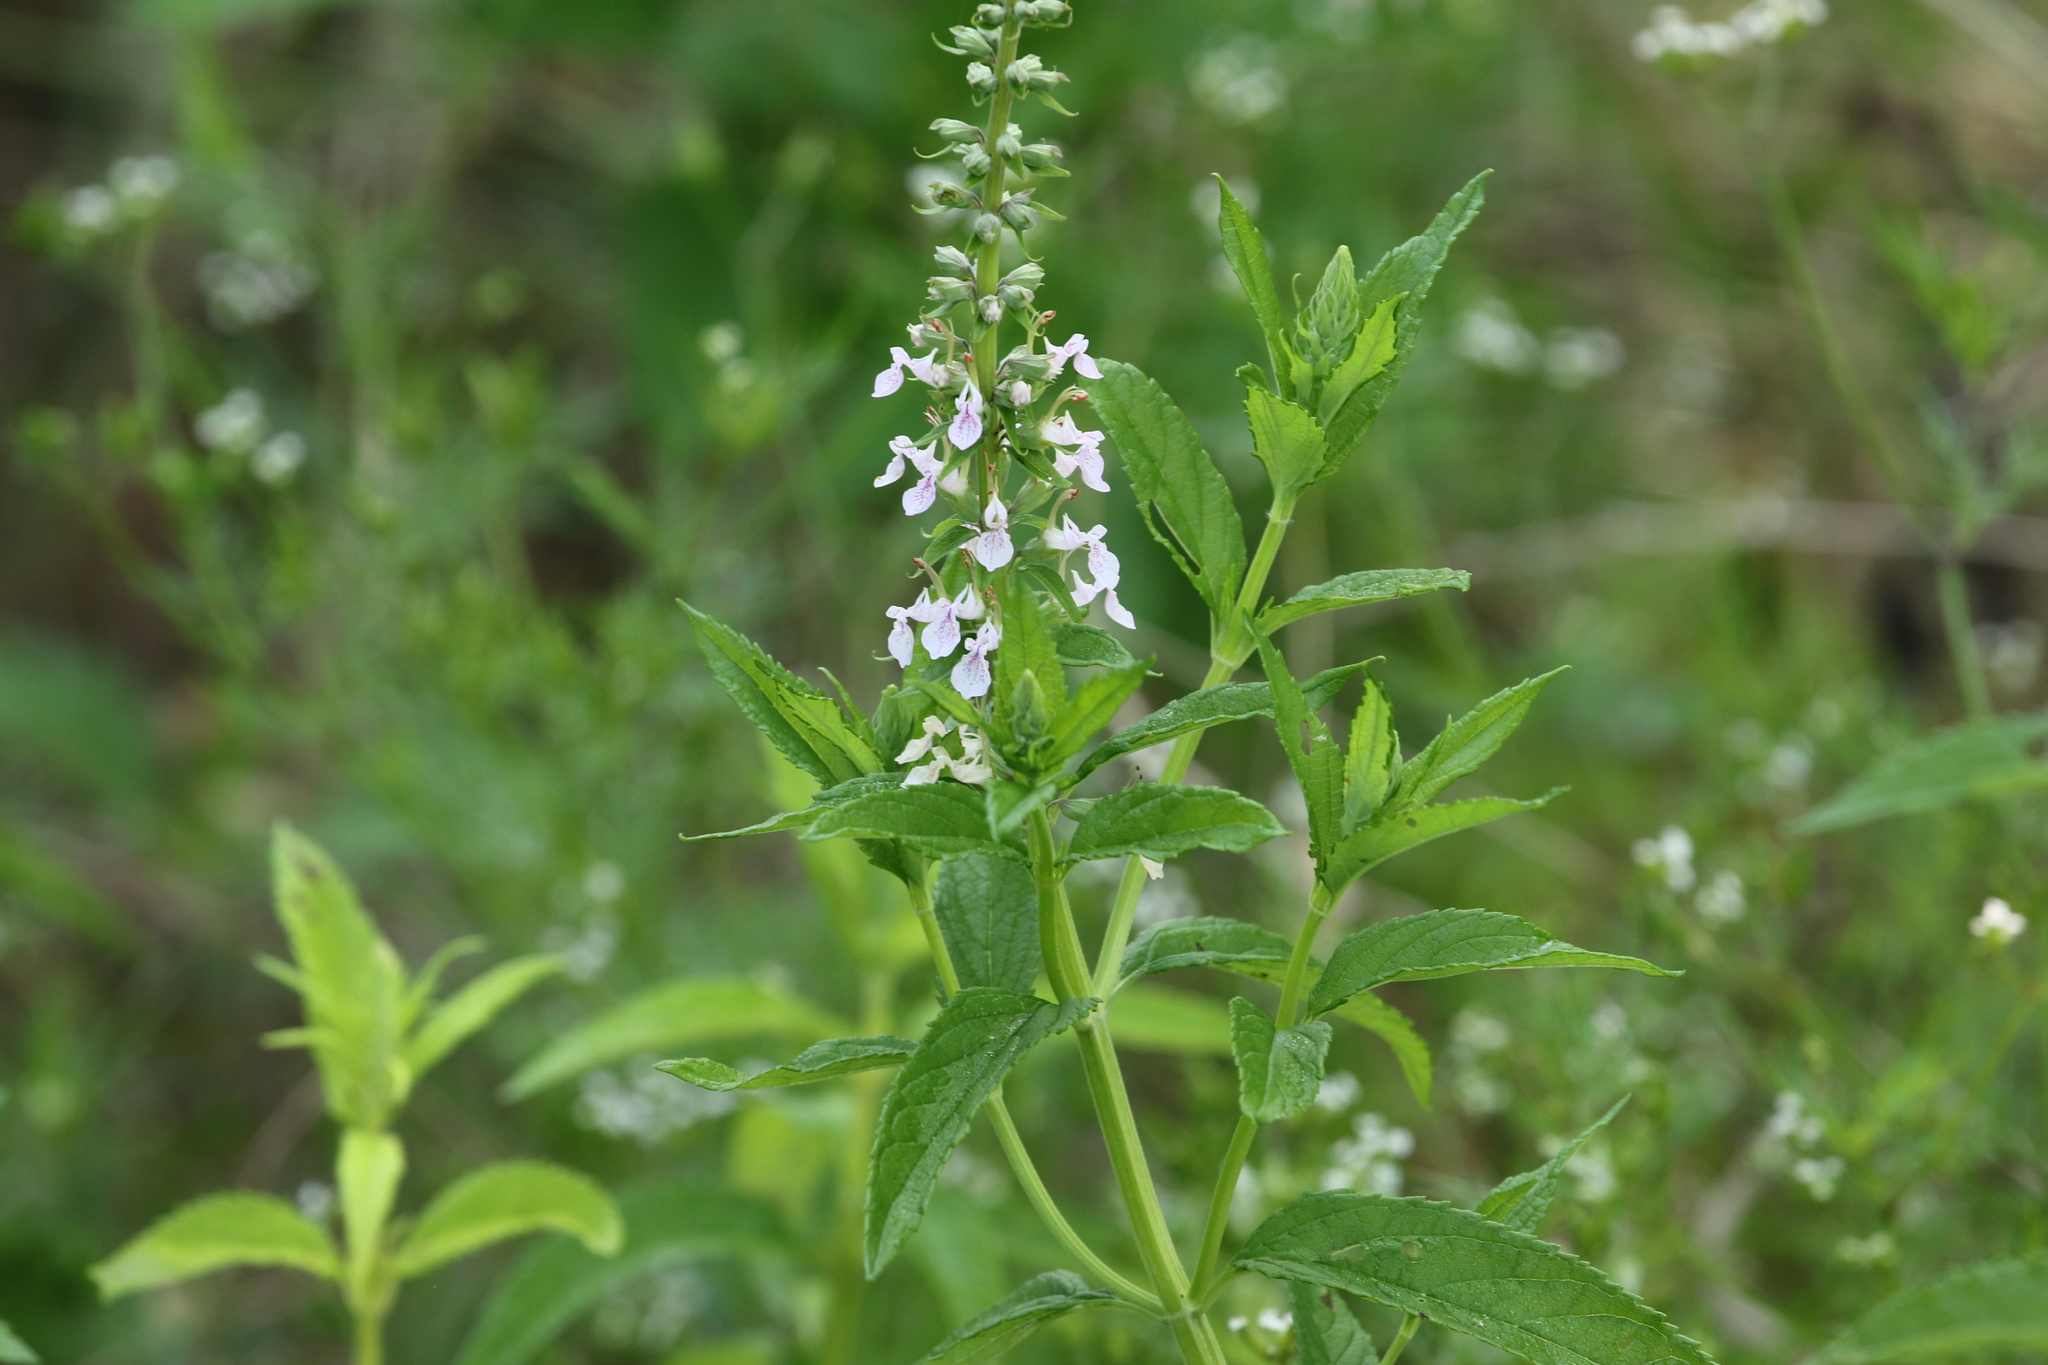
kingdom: Plantae
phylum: Tracheophyta
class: Magnoliopsida
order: Lamiales
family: Lamiaceae
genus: Teucrium
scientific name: Teucrium canadense
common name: American germander
